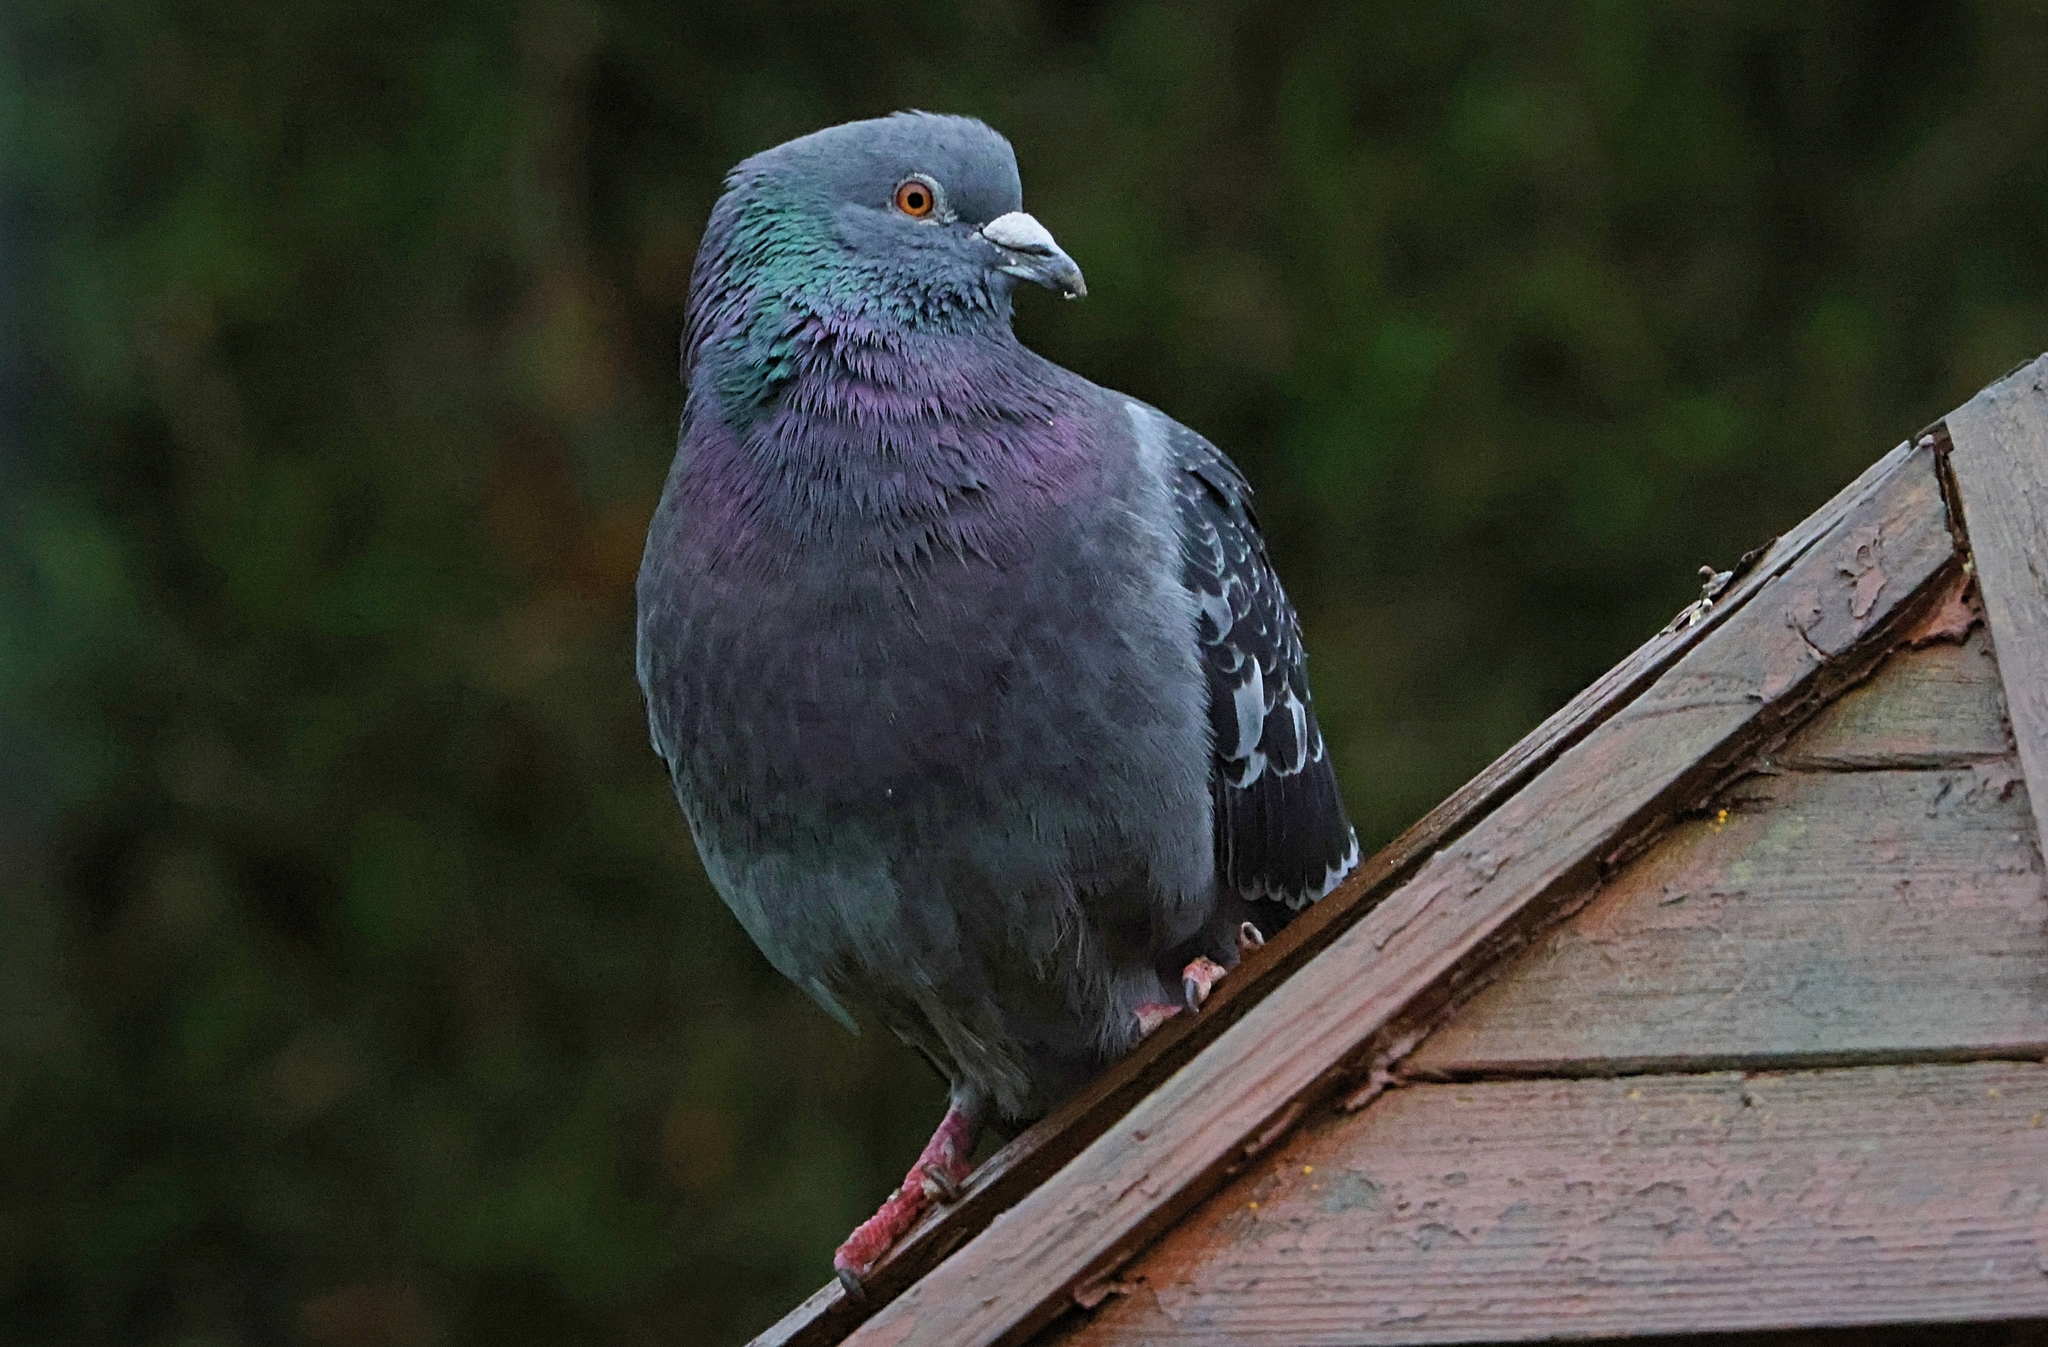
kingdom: Animalia
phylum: Chordata
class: Aves
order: Columbiformes
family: Columbidae
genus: Columba
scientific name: Columba livia
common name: Rock pigeon
